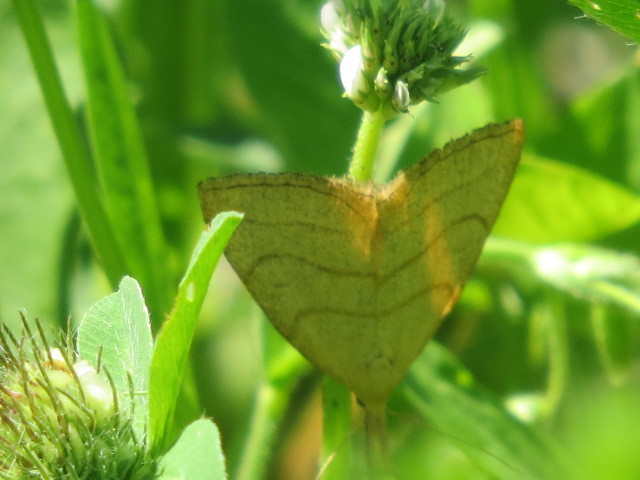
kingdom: Animalia
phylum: Arthropoda
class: Insecta
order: Lepidoptera
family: Erebidae
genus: Polypogon
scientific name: Polypogon tentacularia
